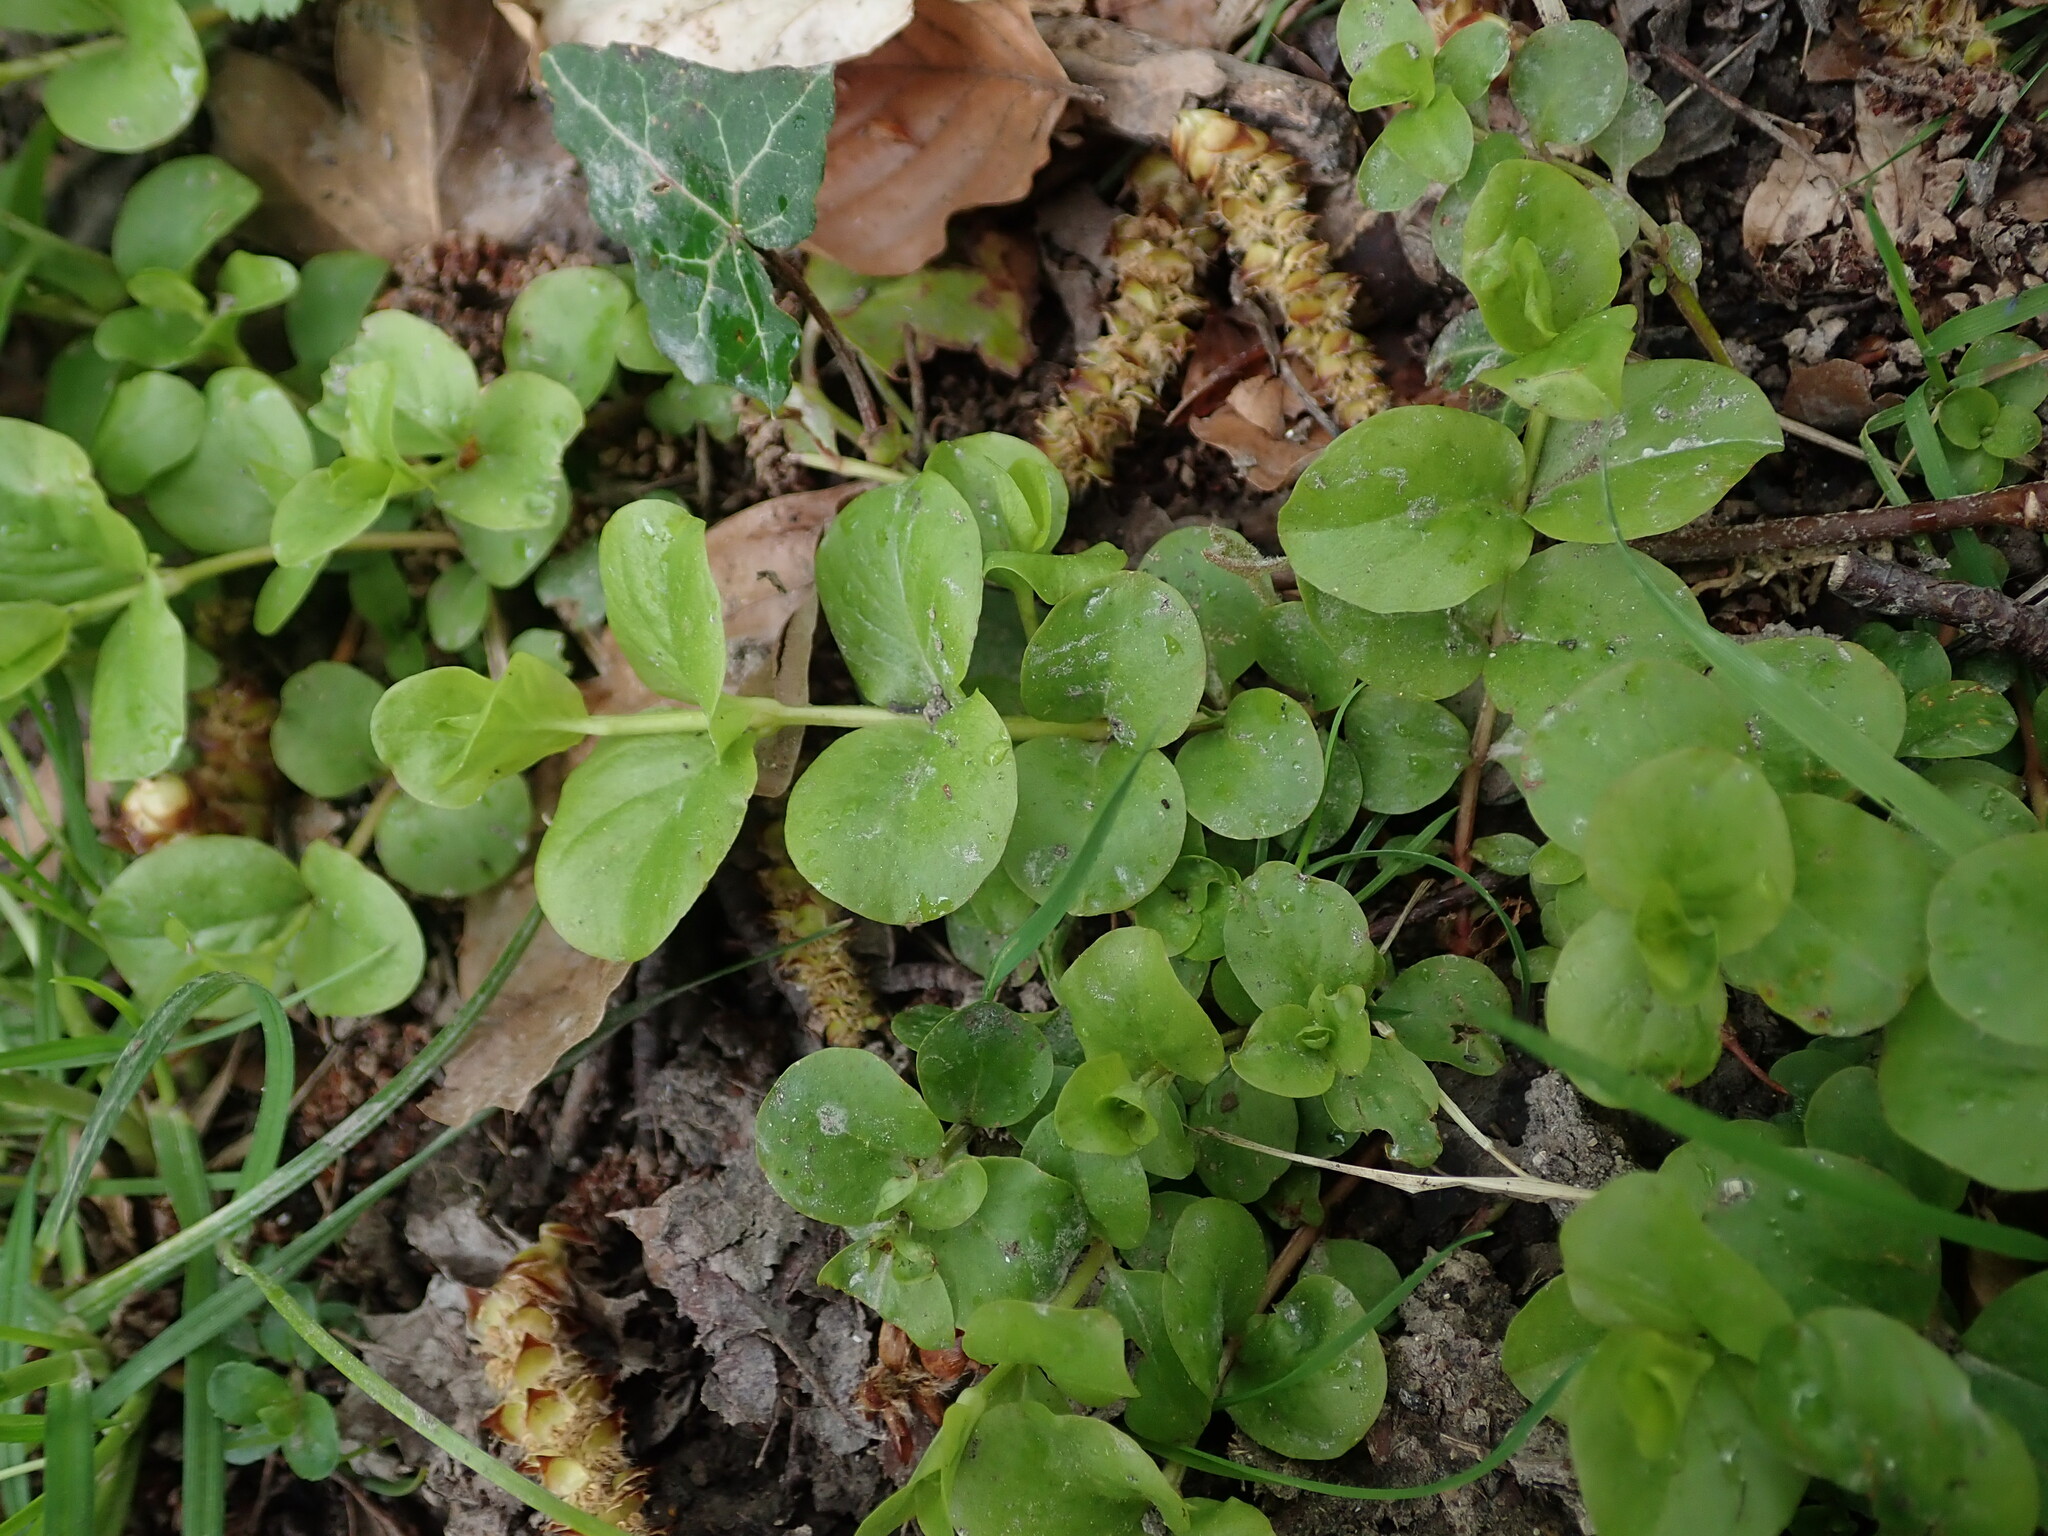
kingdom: Plantae
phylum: Tracheophyta
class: Magnoliopsida
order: Ericales
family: Primulaceae
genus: Lysimachia
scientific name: Lysimachia nummularia
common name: Moneywort
